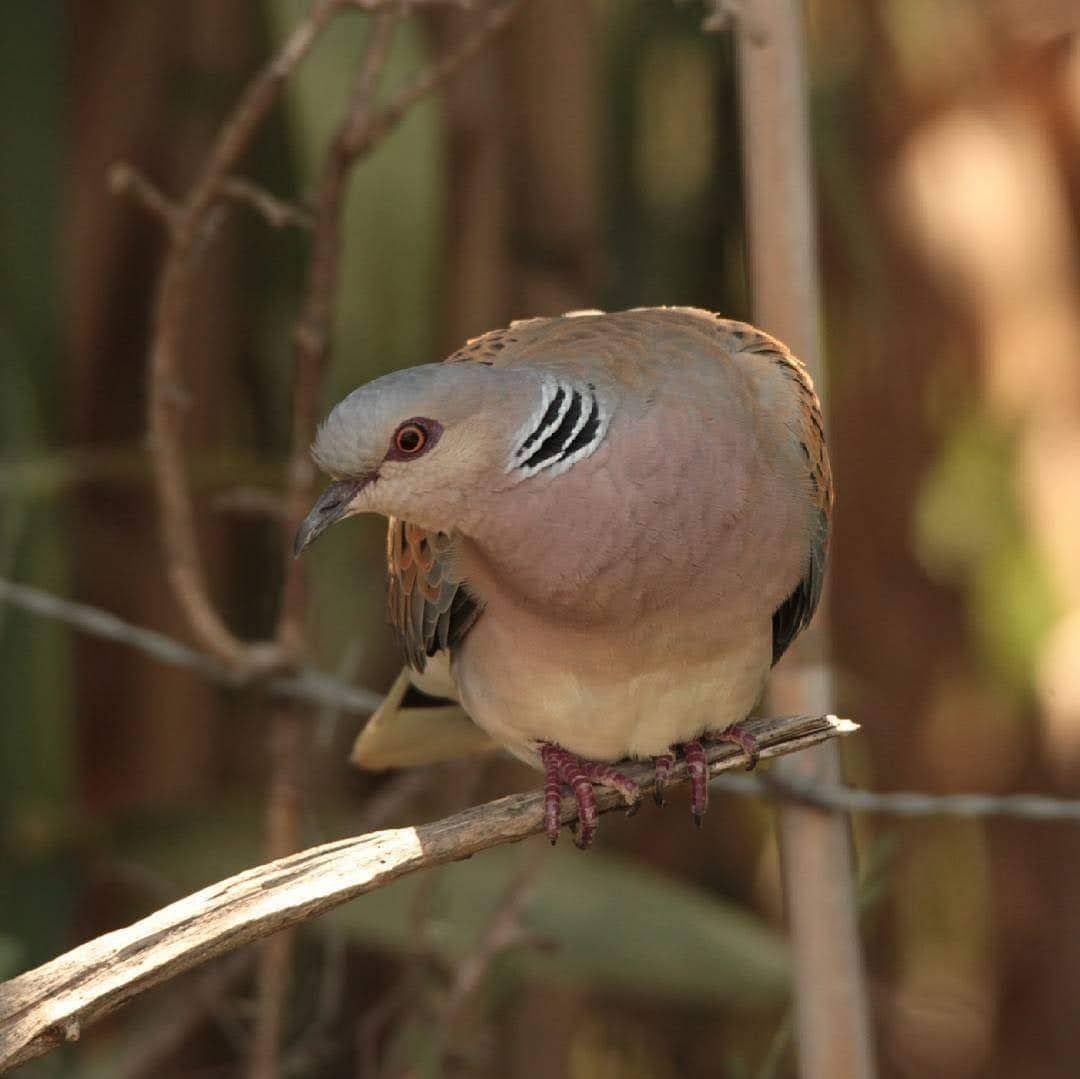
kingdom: Animalia
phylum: Chordata
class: Aves
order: Columbiformes
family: Columbidae
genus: Streptopelia
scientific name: Streptopelia turtur
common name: European turtle dove
